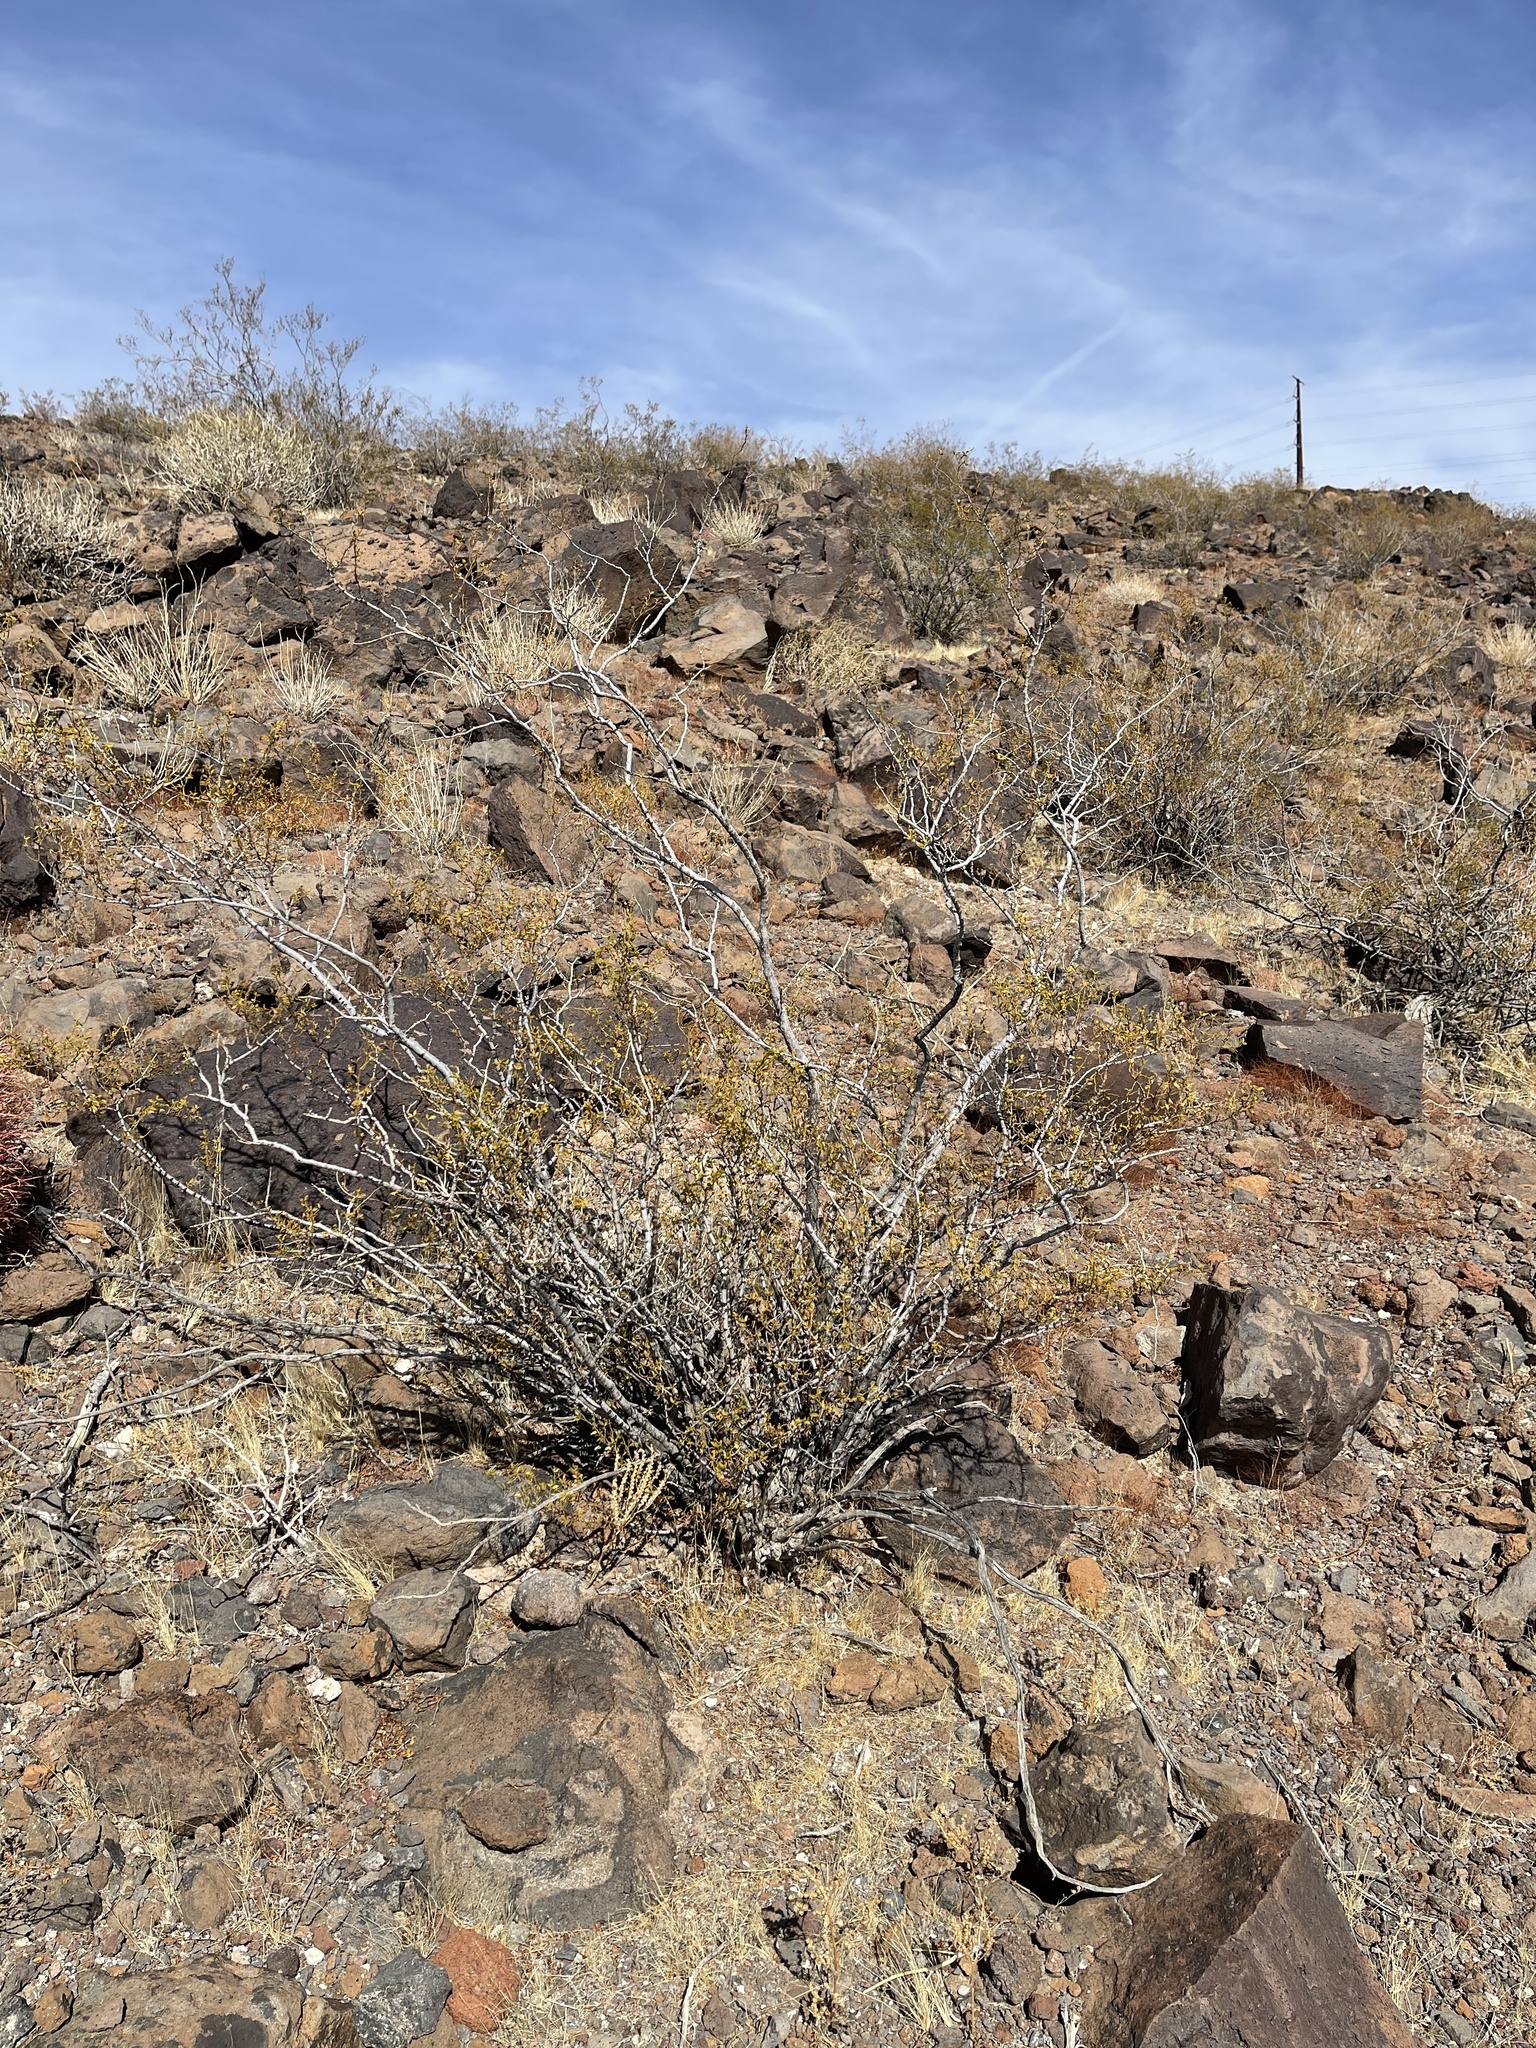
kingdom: Plantae
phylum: Tracheophyta
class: Magnoliopsida
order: Zygophyllales
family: Zygophyllaceae
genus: Larrea
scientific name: Larrea tridentata
